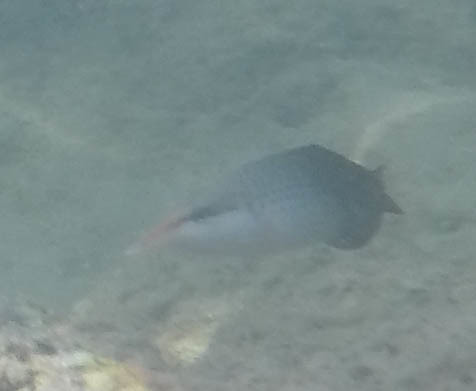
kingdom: Animalia
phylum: Chordata
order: Perciformes
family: Labridae
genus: Gomphosus
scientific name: Gomphosus varius
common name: Bird wrasse
